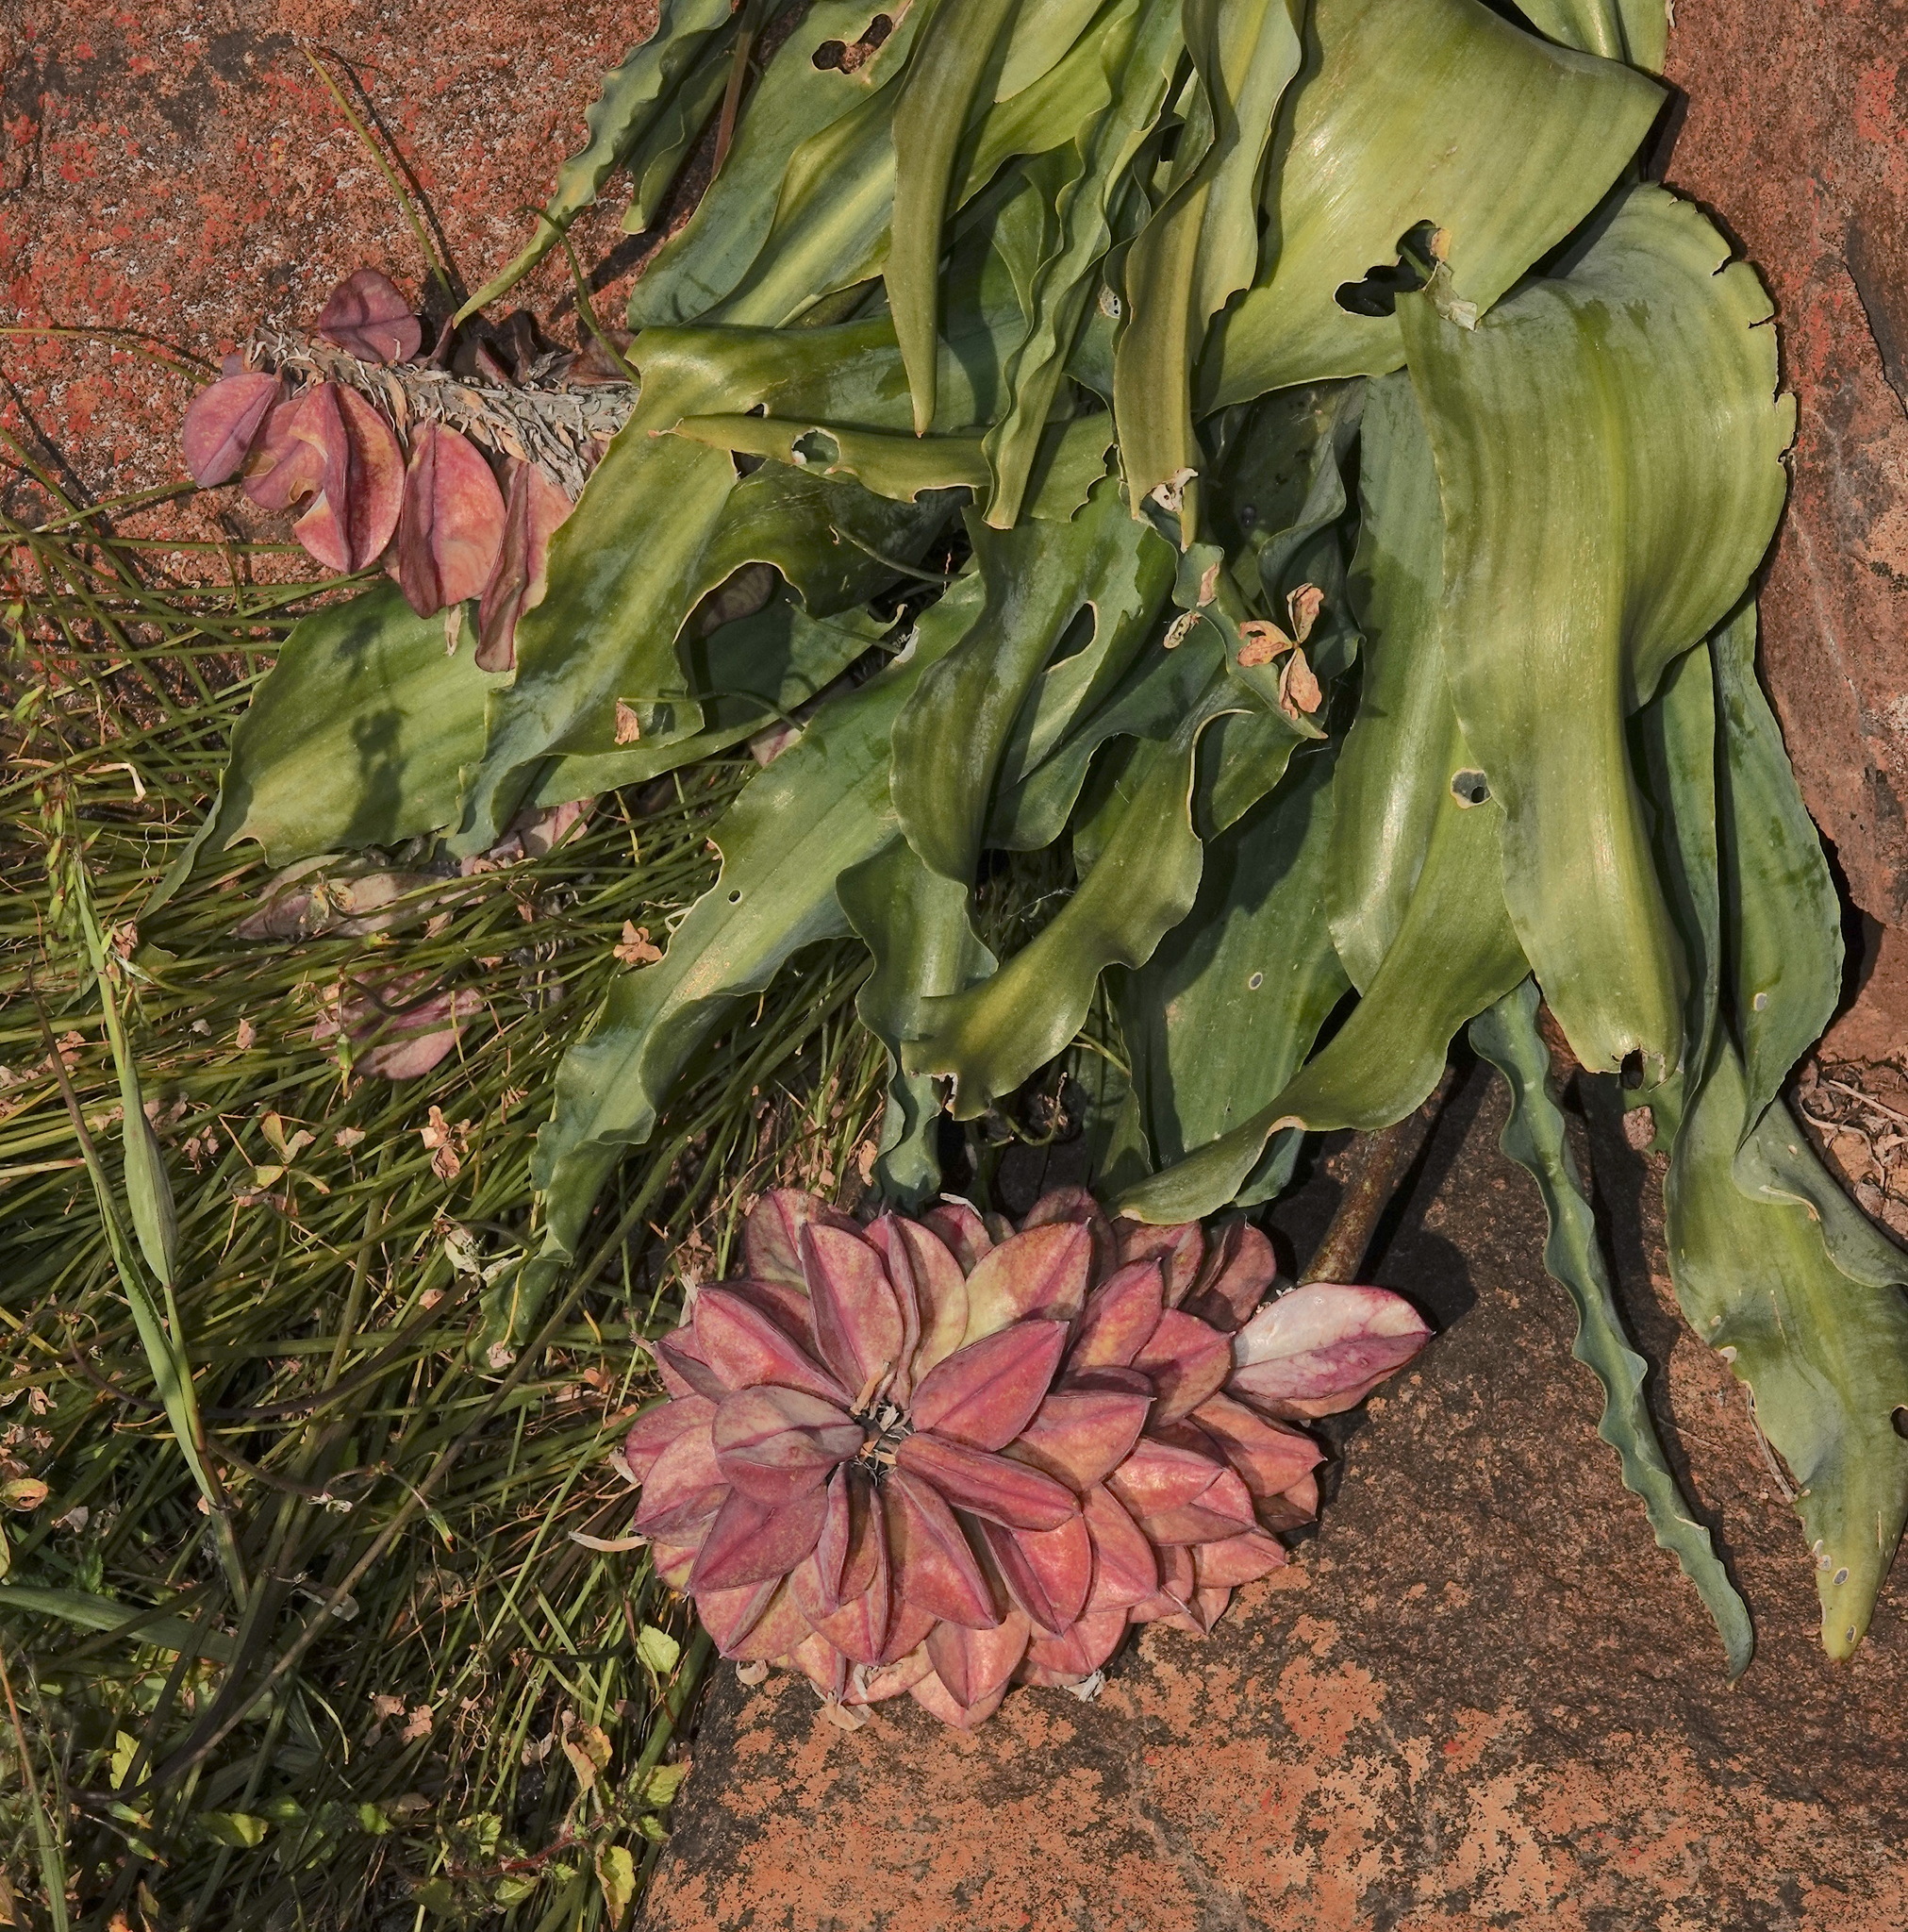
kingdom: Plantae
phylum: Tracheophyta
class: Liliopsida
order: Asparagales
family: Asparagaceae
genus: Veltheimia
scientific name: Veltheimia capensis
